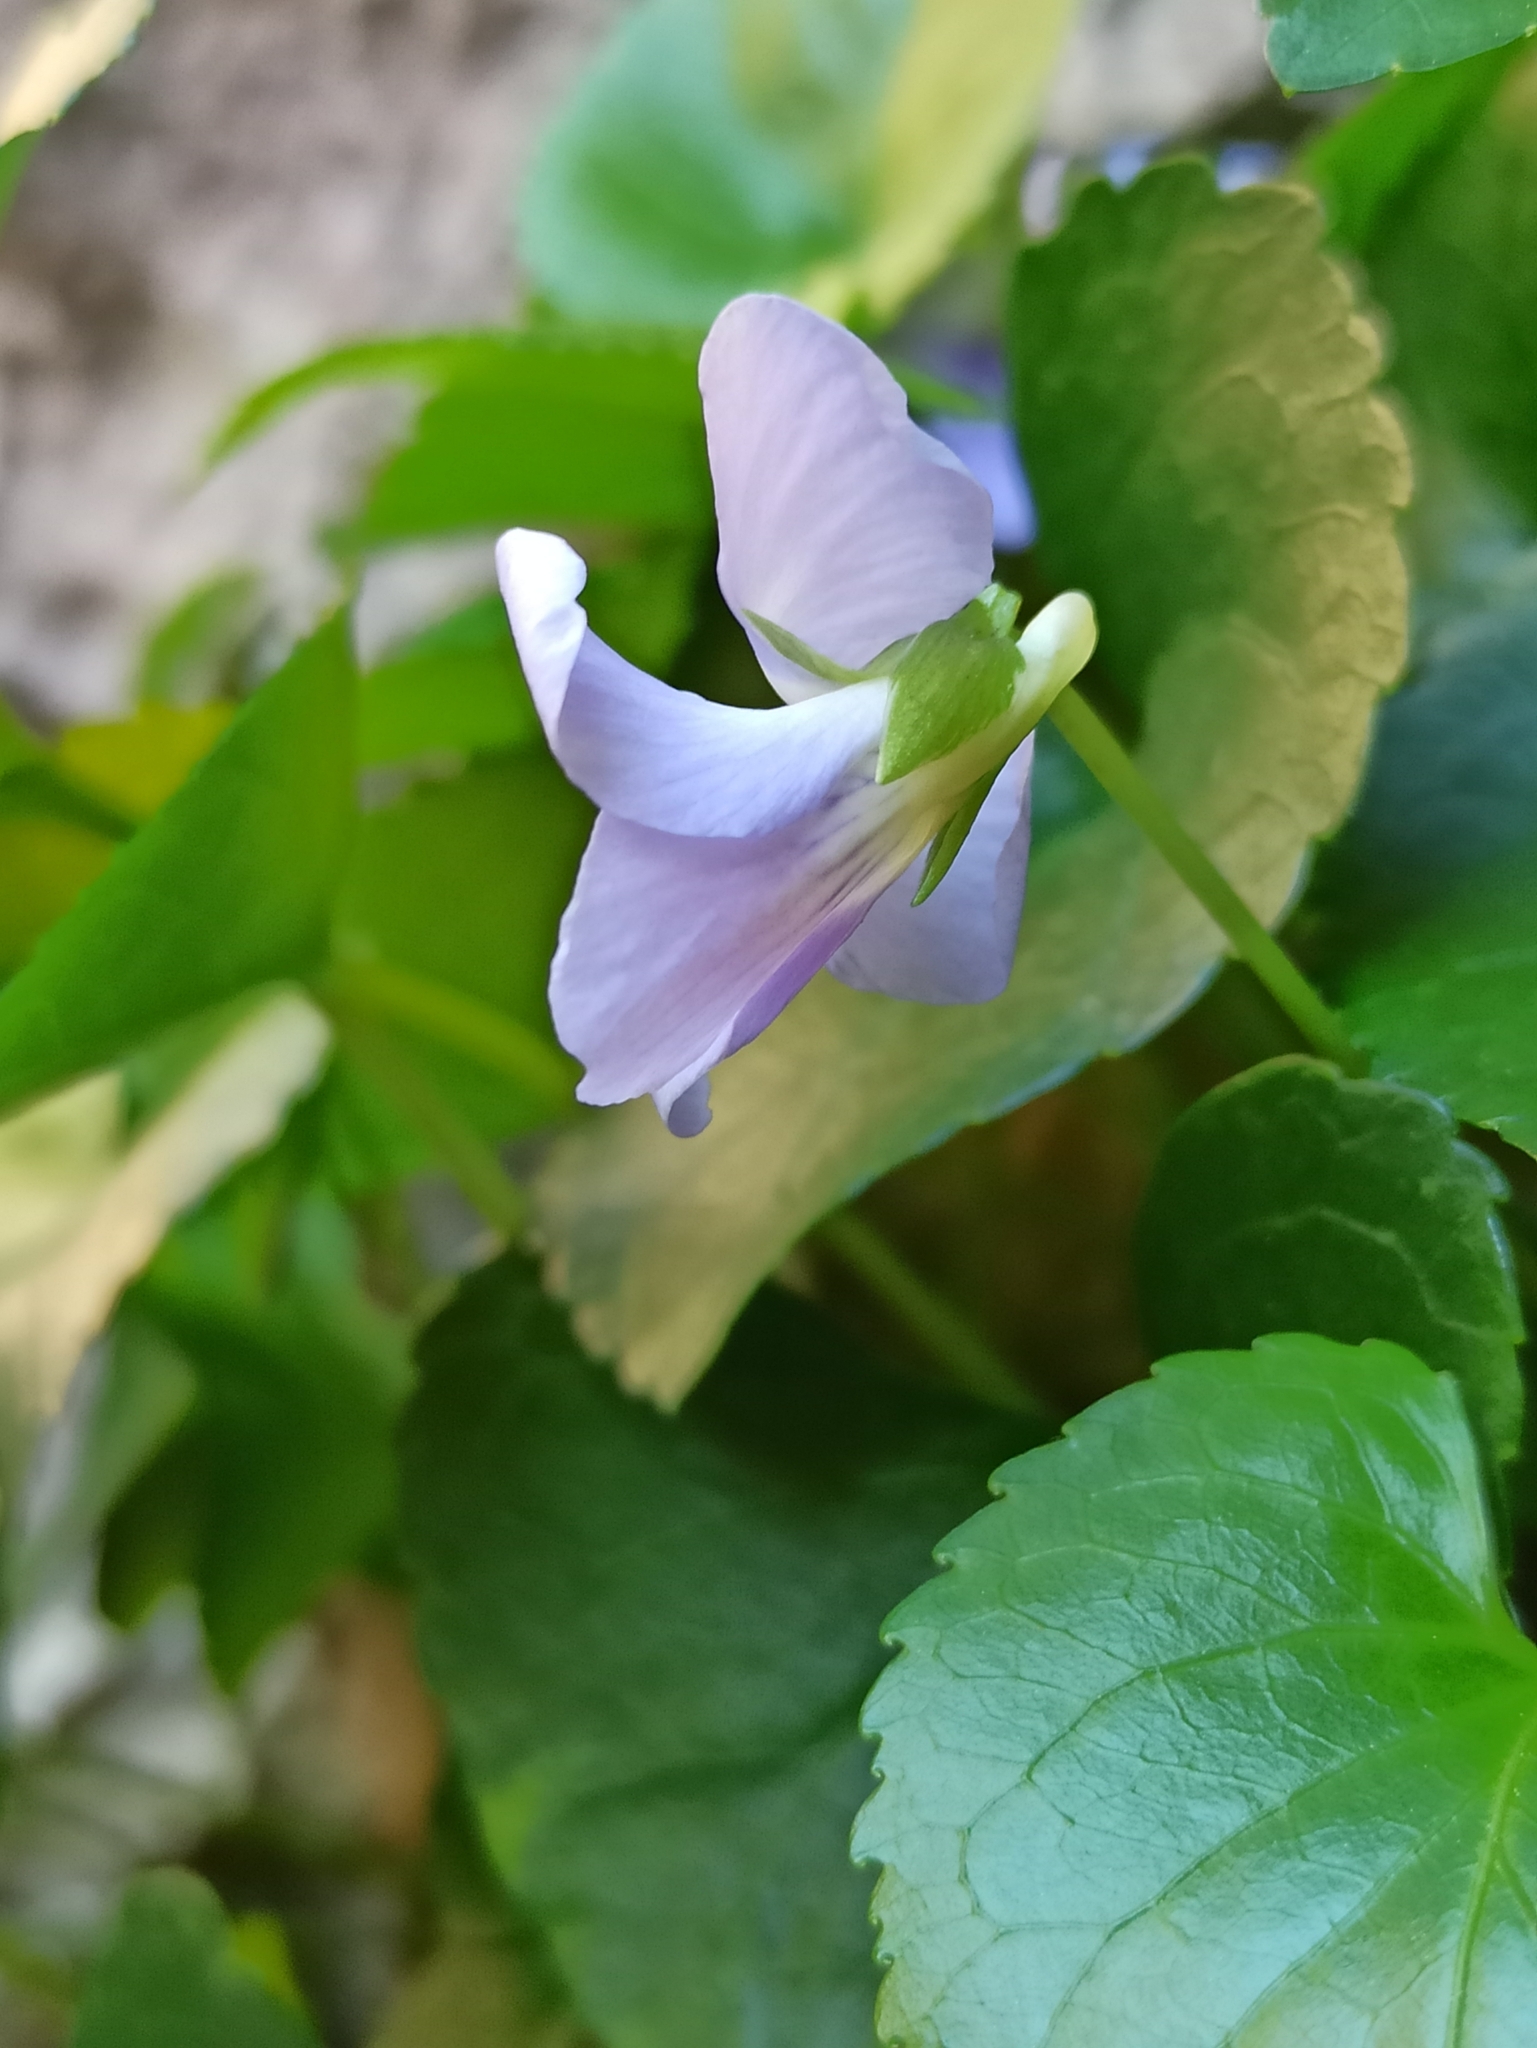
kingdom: Plantae
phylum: Tracheophyta
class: Magnoliopsida
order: Malpighiales
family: Violaceae
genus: Viola
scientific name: Viola jaubertiana
